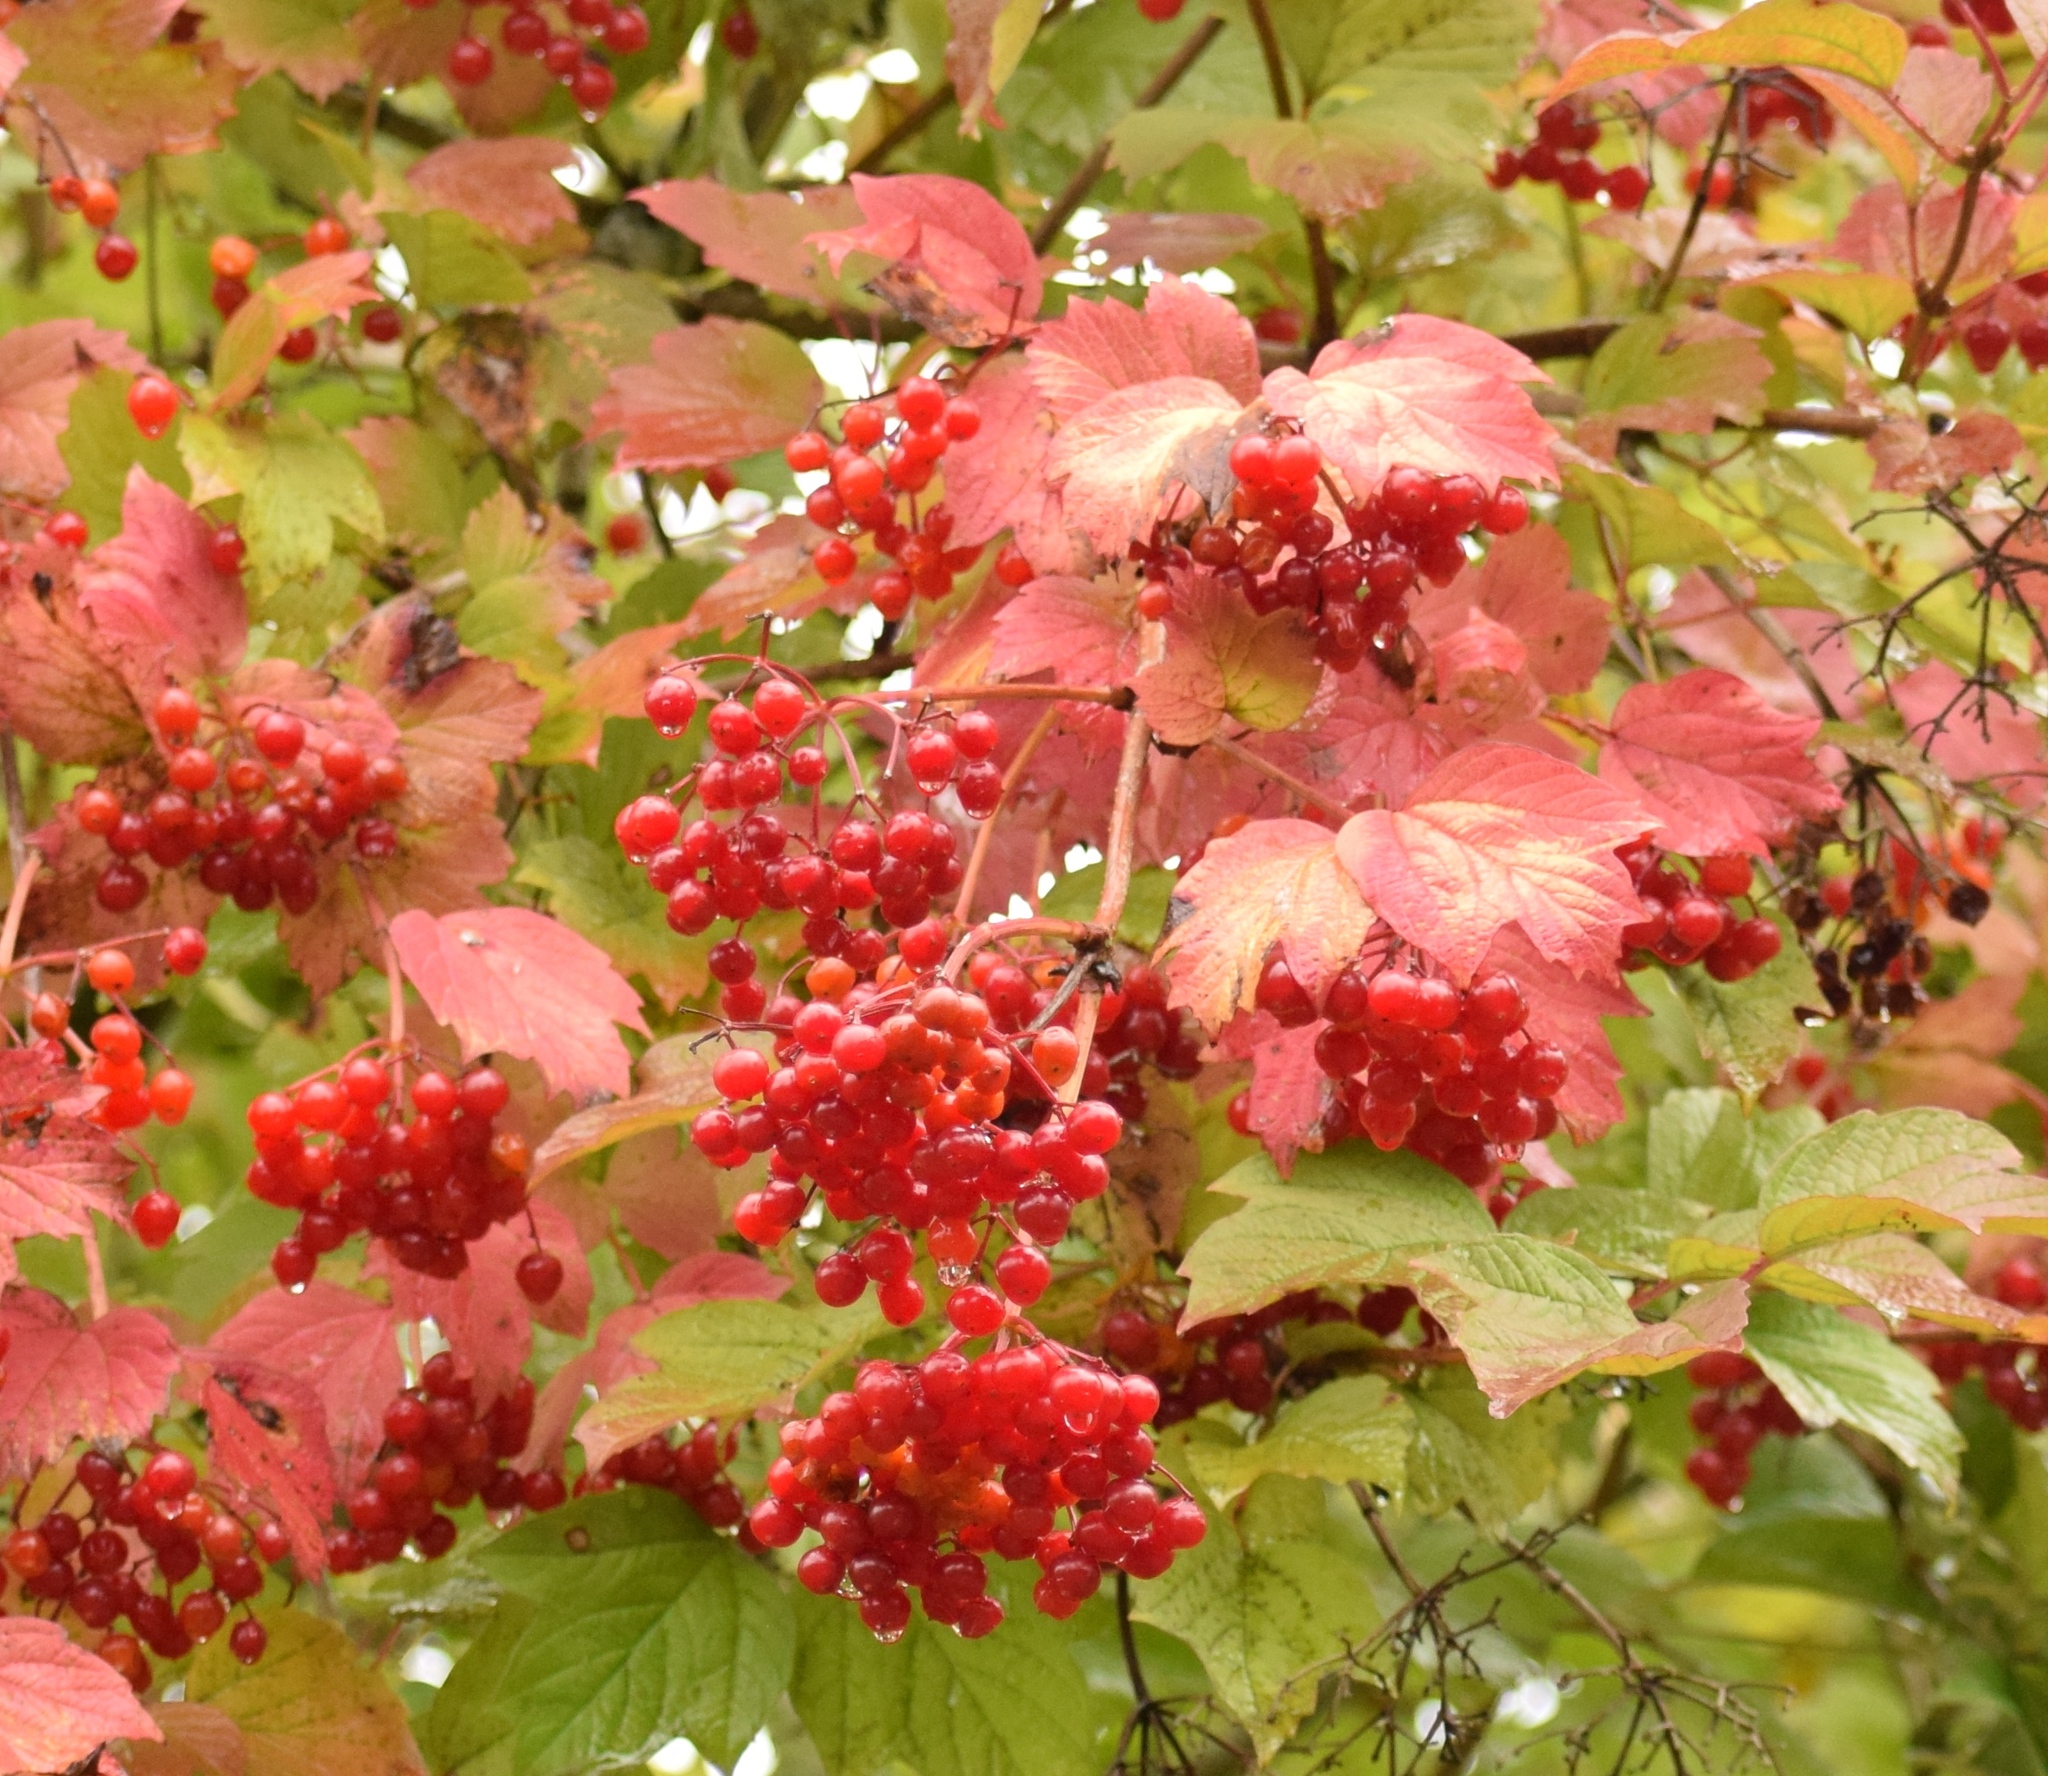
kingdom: Plantae
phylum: Tracheophyta
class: Magnoliopsida
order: Dipsacales
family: Viburnaceae
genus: Viburnum
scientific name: Viburnum opulus
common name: Guelder-rose
